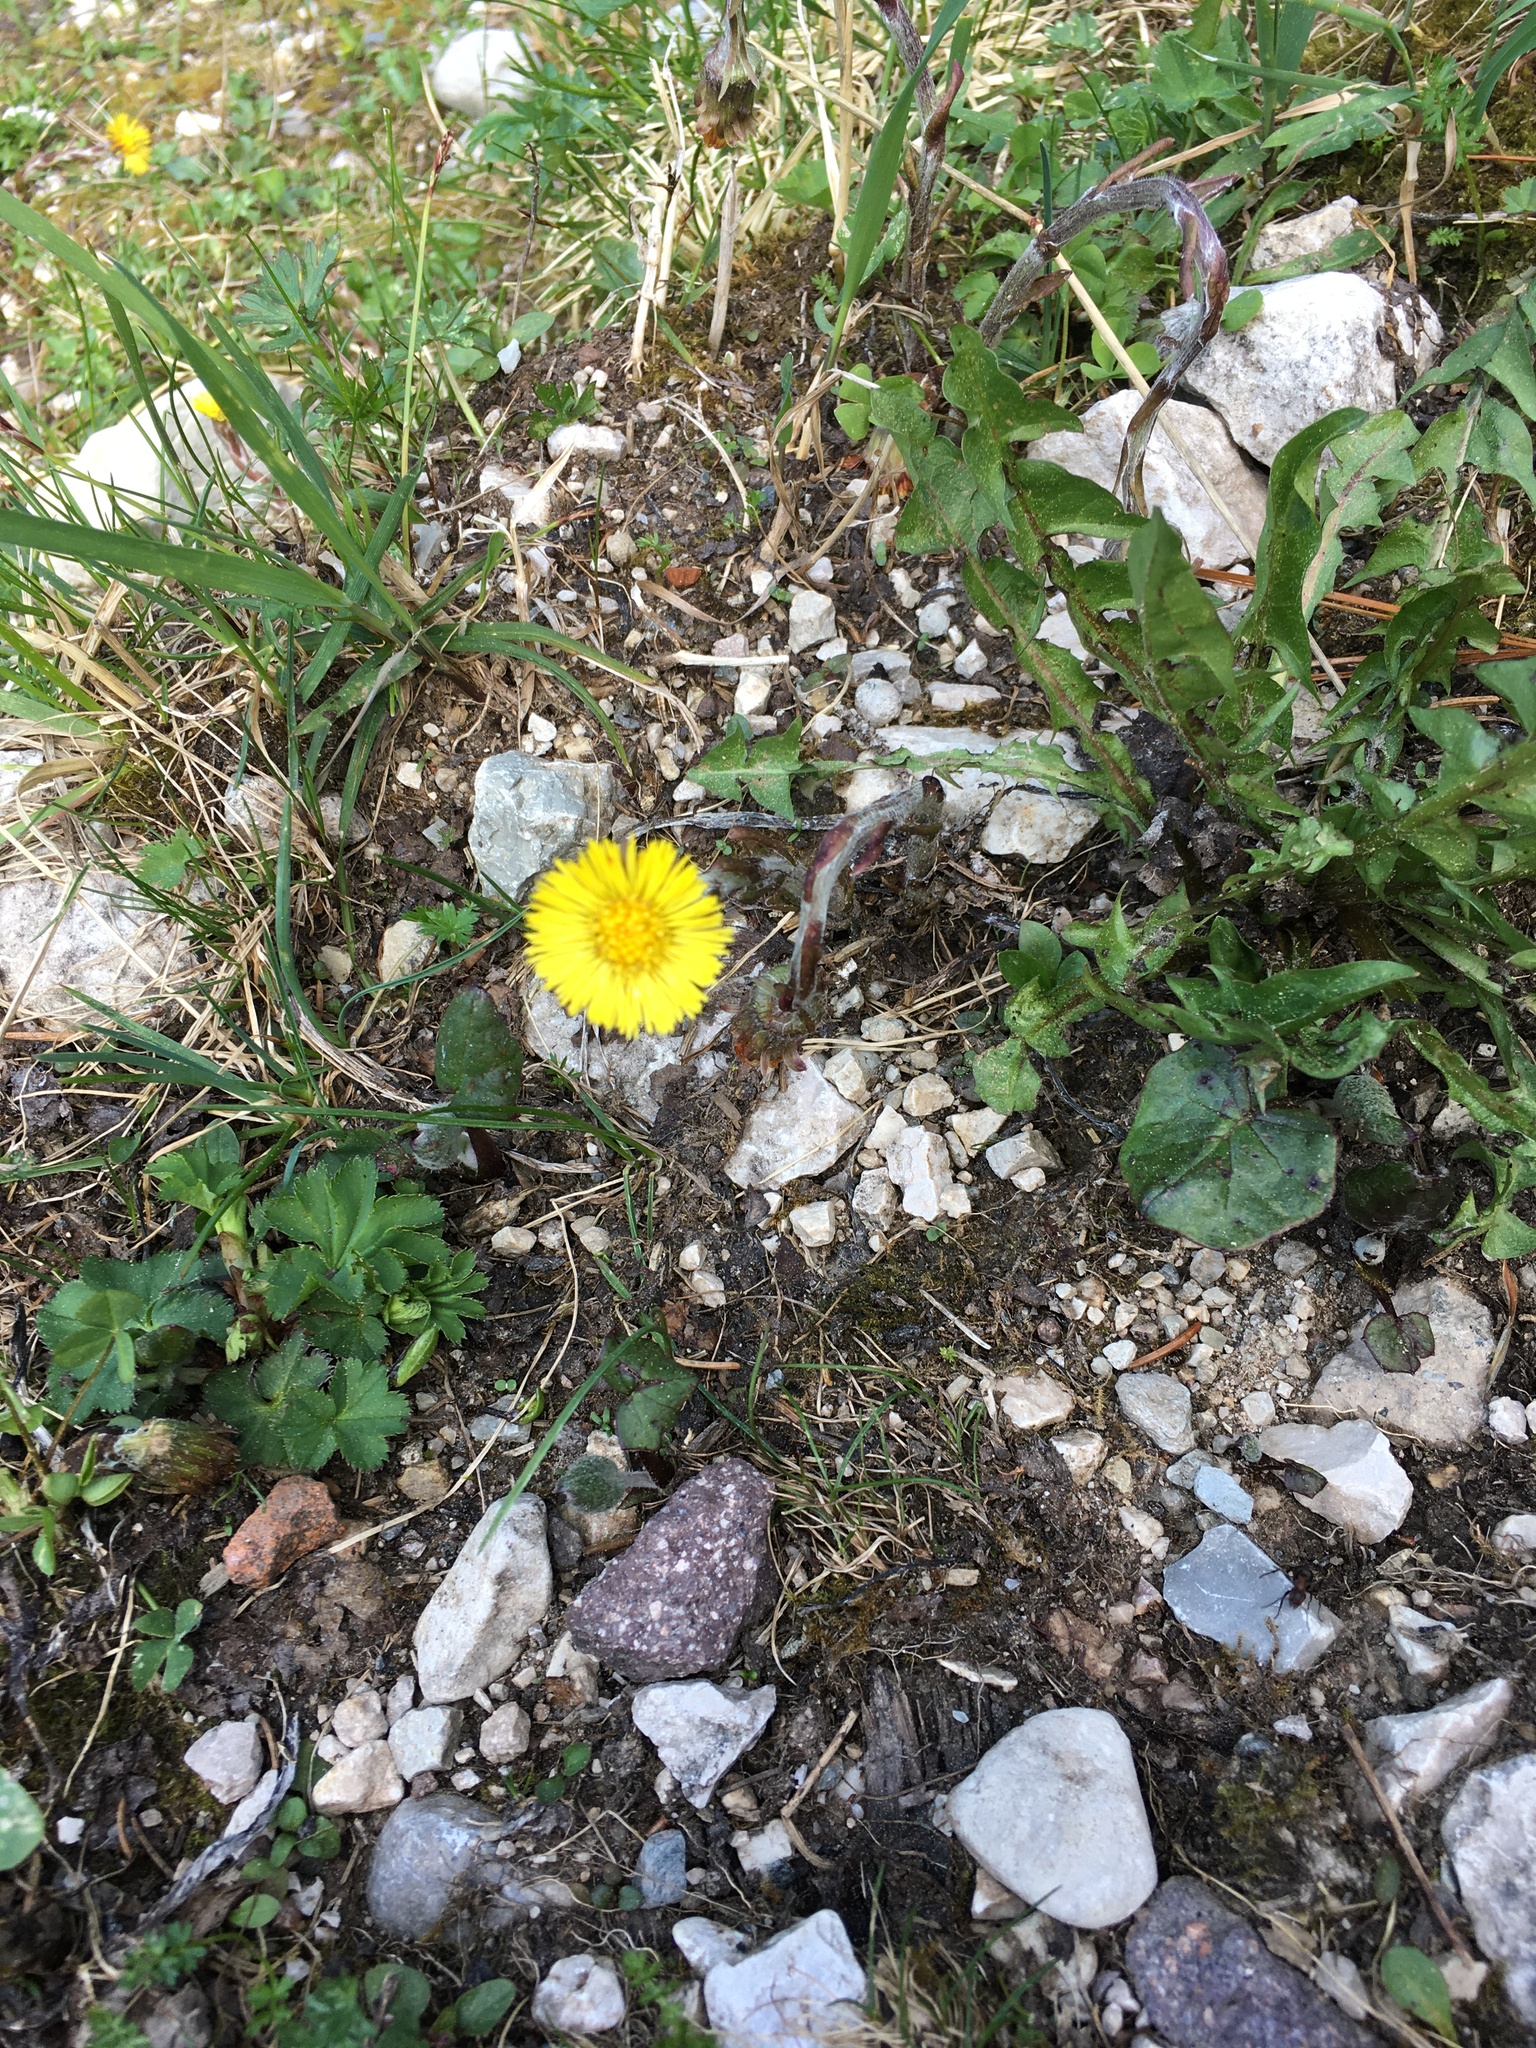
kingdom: Plantae
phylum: Tracheophyta
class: Magnoliopsida
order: Asterales
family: Asteraceae
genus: Tussilago
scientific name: Tussilago farfara
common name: Coltsfoot
